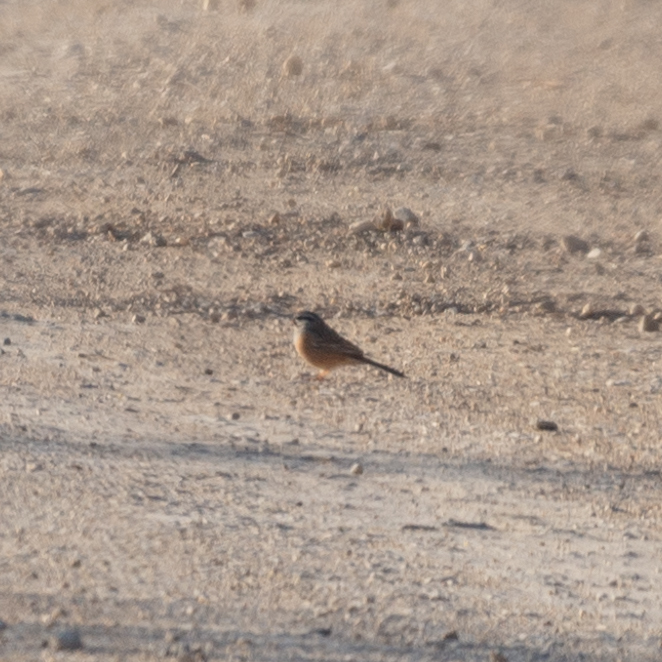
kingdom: Animalia
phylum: Chordata
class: Aves
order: Passeriformes
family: Emberizidae
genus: Emberiza
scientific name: Emberiza cia
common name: Rock bunting
